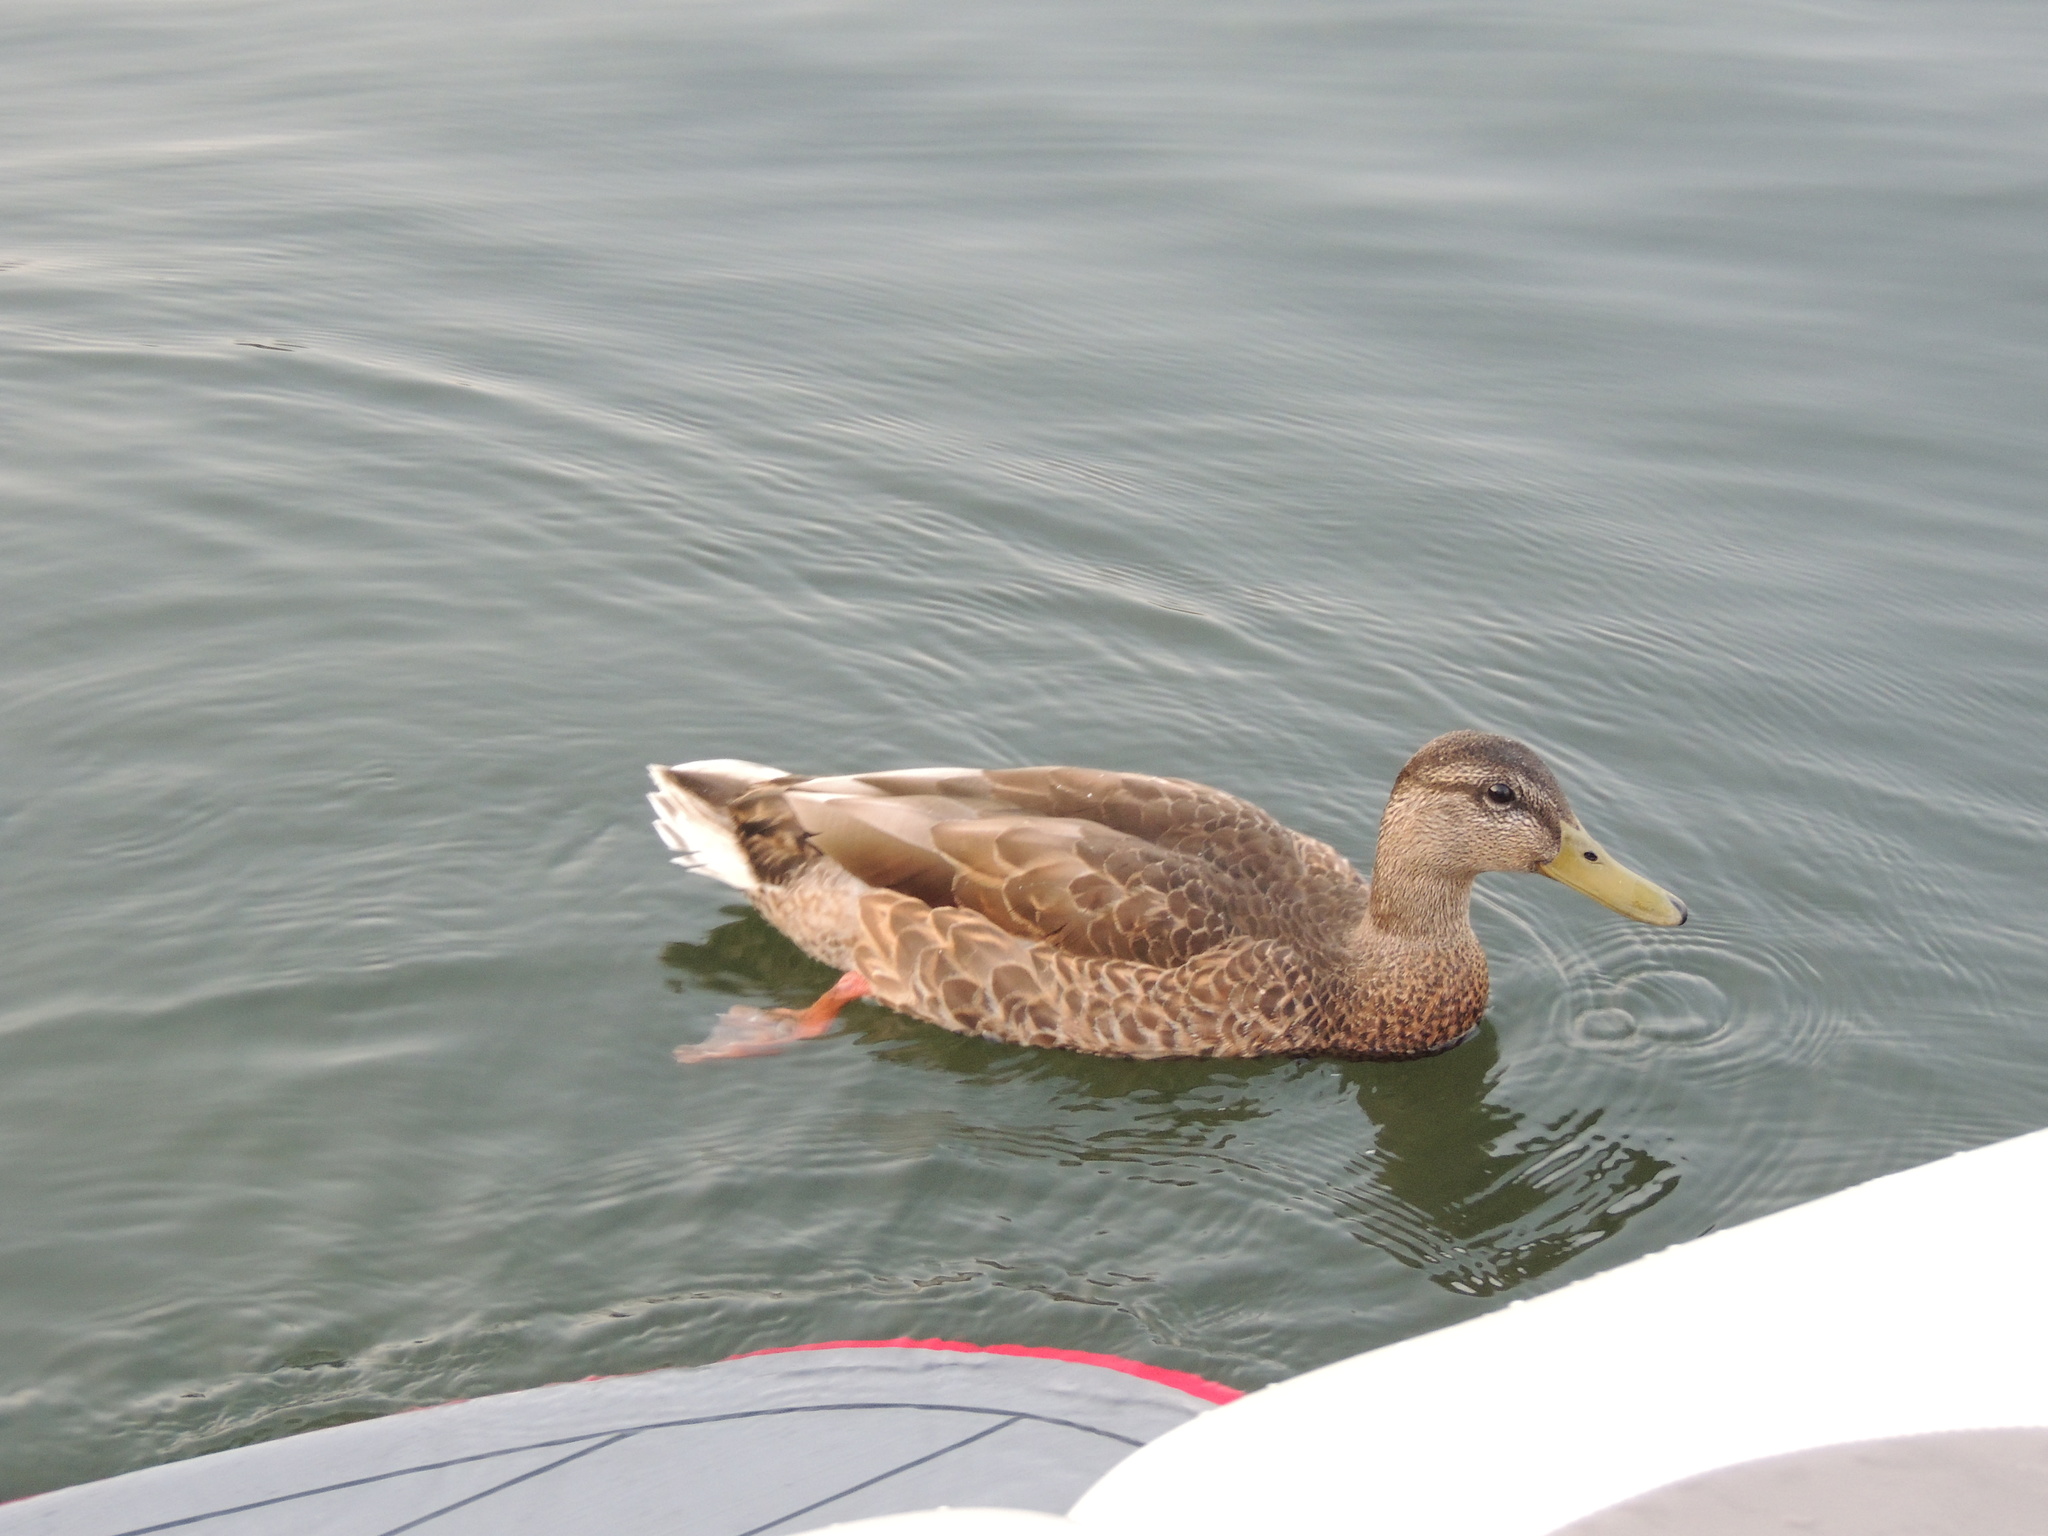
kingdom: Animalia
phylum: Chordata
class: Aves
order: Anseriformes
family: Anatidae
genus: Anas
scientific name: Anas platyrhynchos
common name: Mallard
